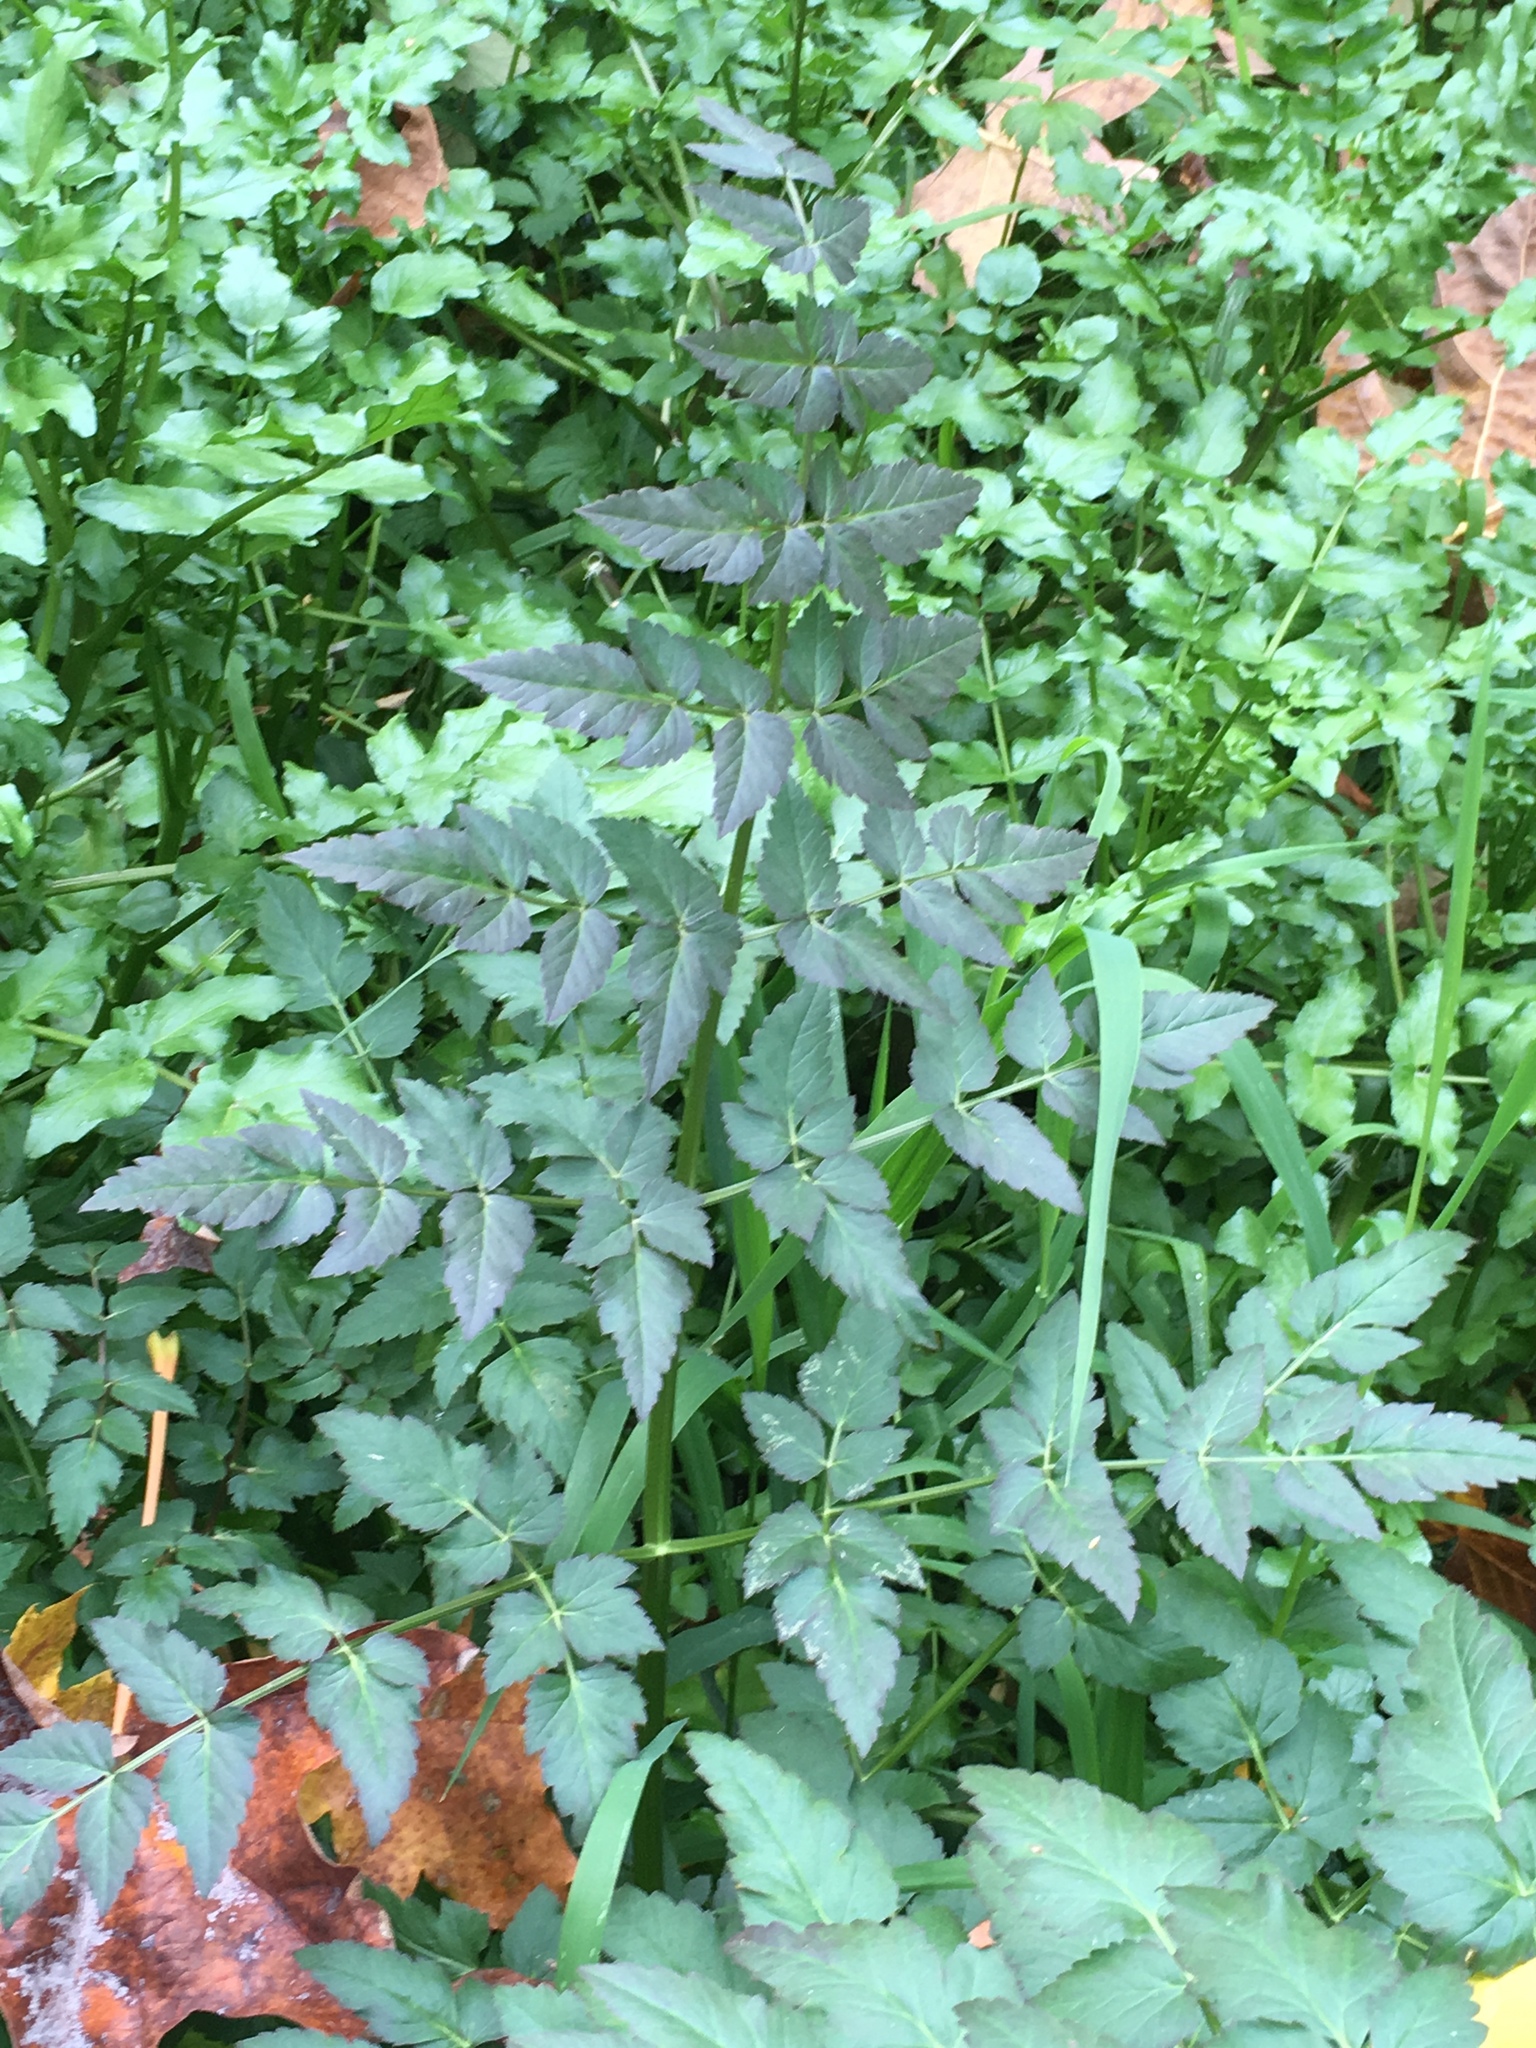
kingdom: Plantae
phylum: Tracheophyta
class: Magnoliopsida
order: Apiales
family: Apiaceae
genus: Oenanthe
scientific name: Oenanthe sarmentosa
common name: American water-parsley
